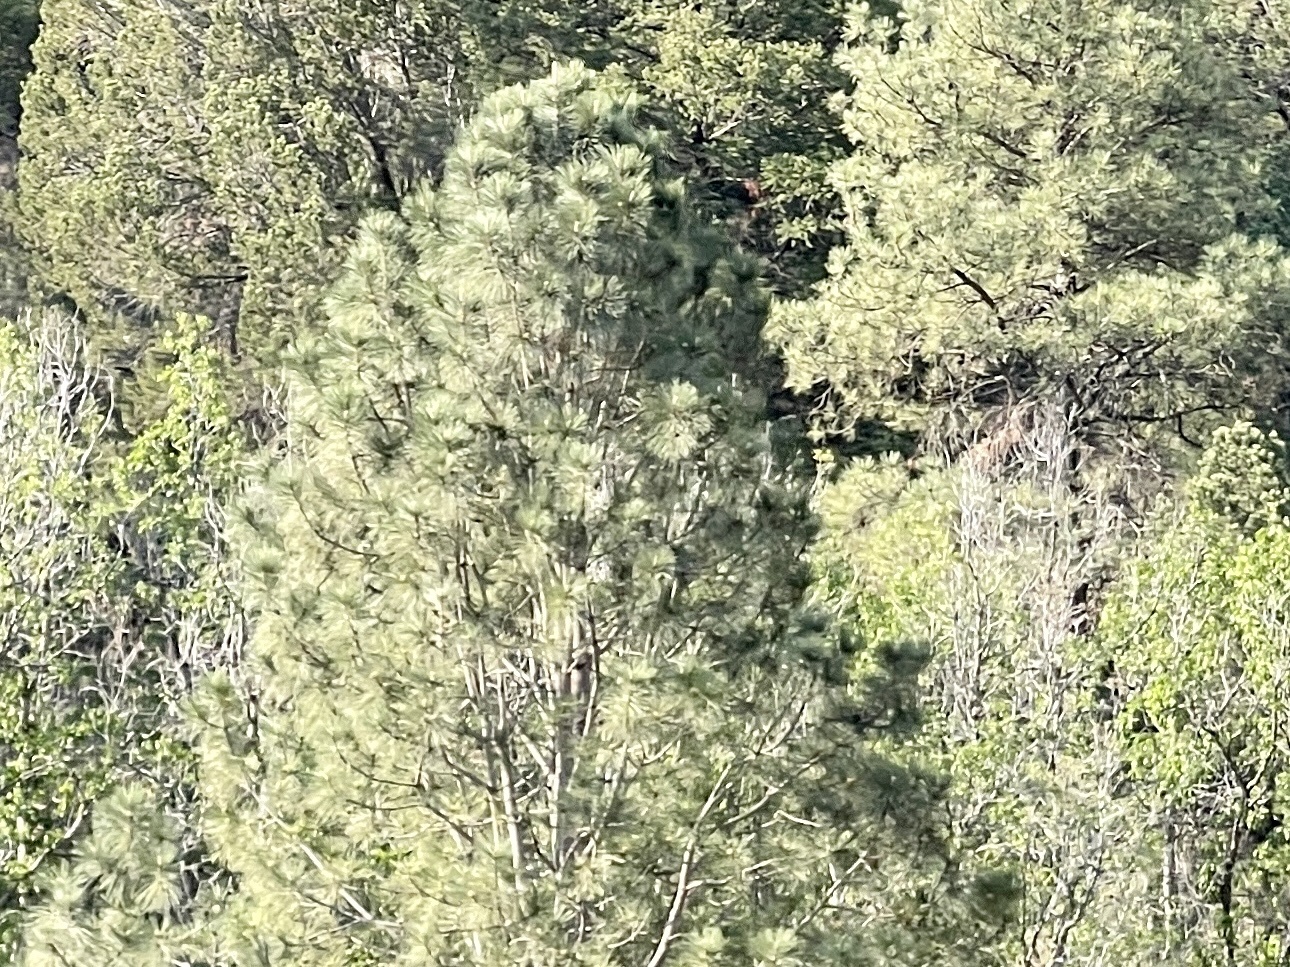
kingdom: Plantae
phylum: Tracheophyta
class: Pinopsida
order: Pinales
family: Pinaceae
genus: Pinus
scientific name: Pinus ponderosa
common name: Western yellow-pine
